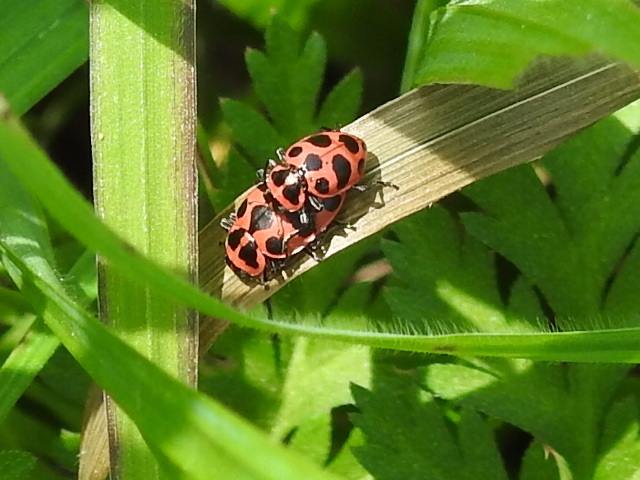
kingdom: Animalia
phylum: Arthropoda
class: Insecta
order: Coleoptera
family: Coccinellidae
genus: Coleomegilla
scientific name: Coleomegilla maculata
